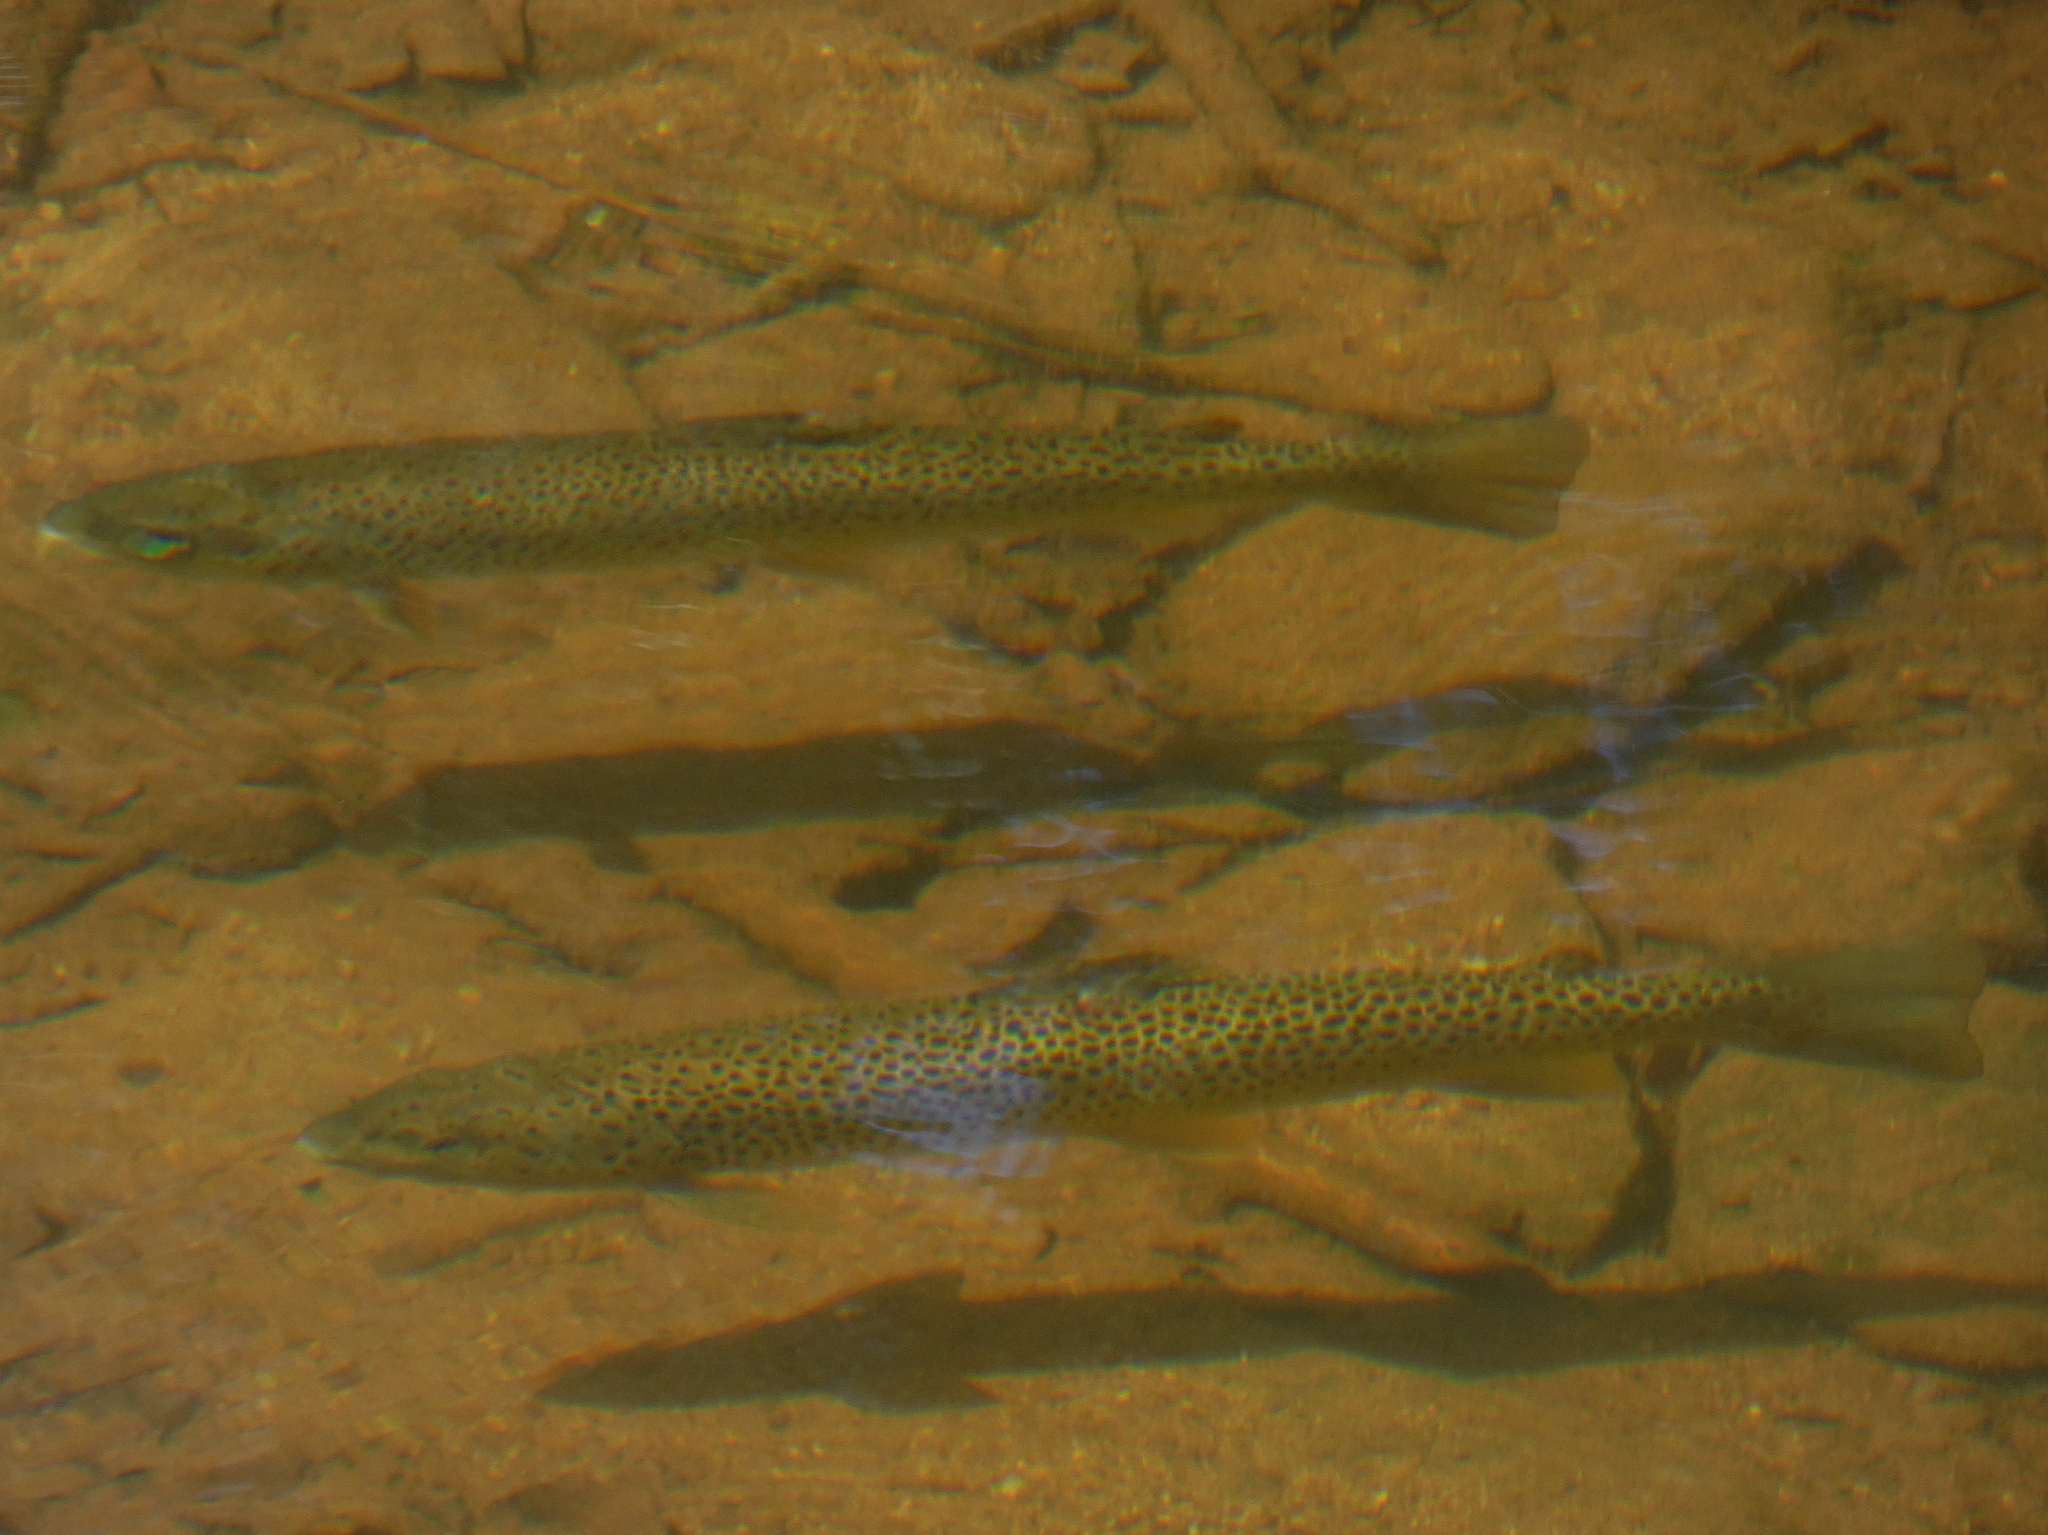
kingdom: Animalia
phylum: Chordata
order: Salmoniformes
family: Salmonidae
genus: Salmo
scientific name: Salmo trutta
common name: Brown trout
